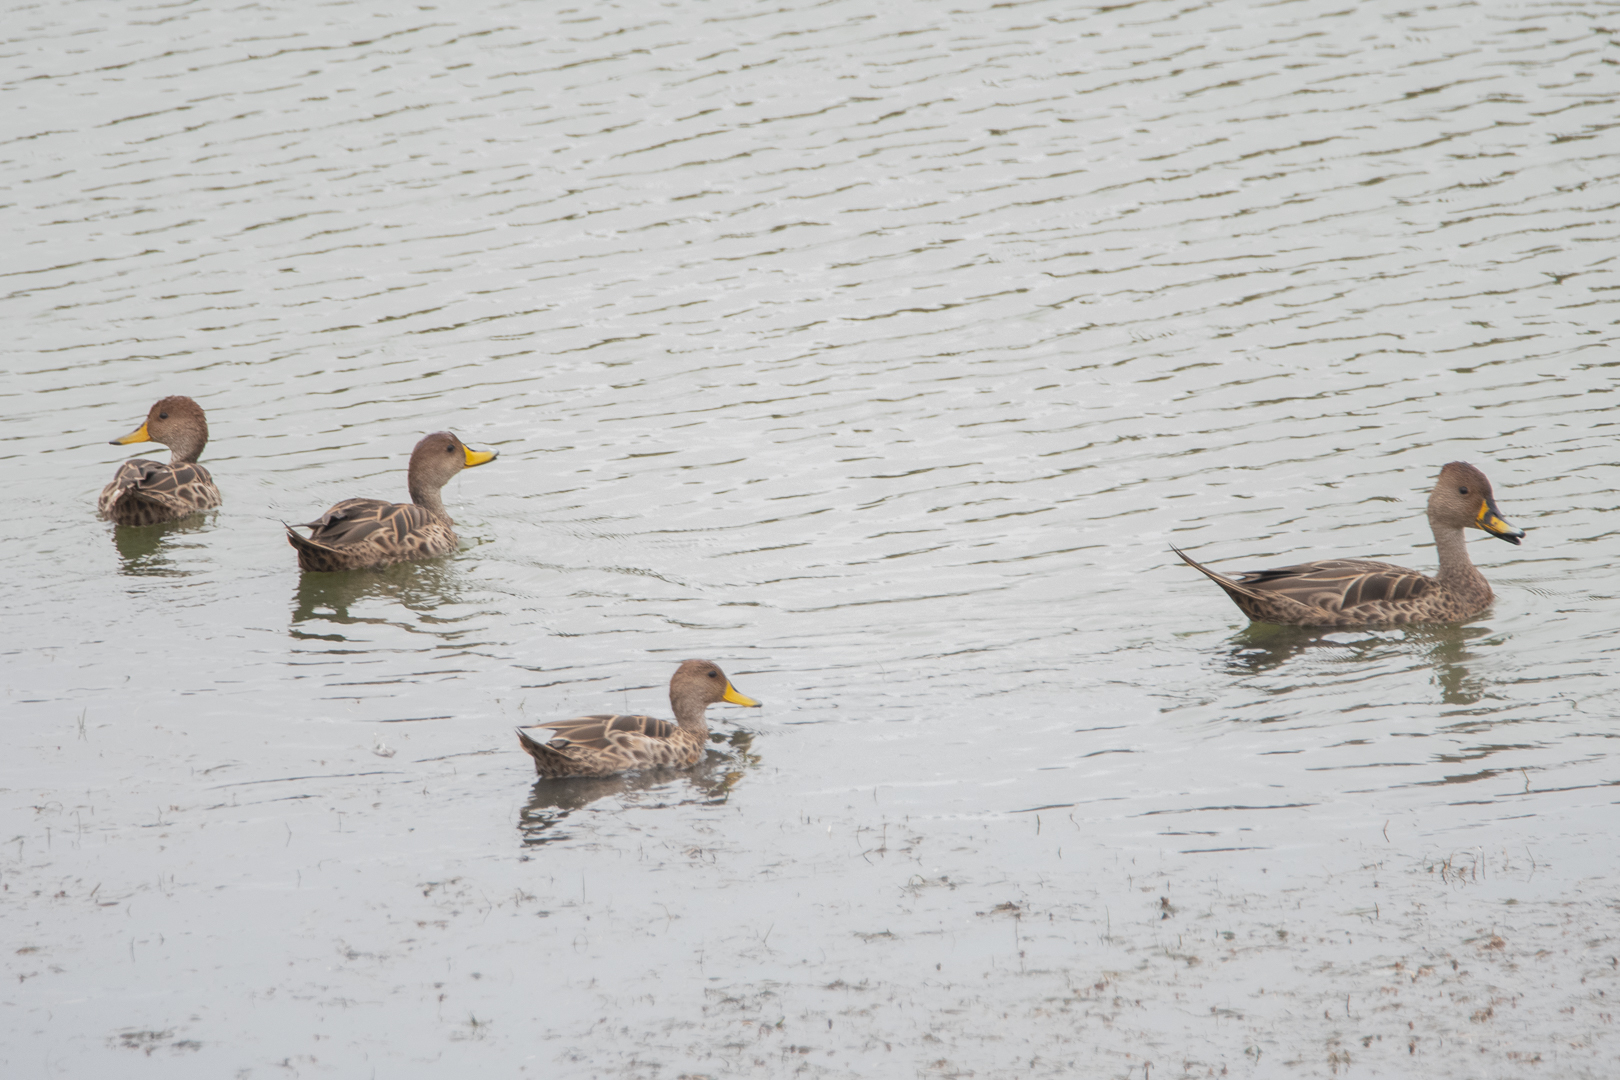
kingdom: Animalia
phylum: Chordata
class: Aves
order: Anseriformes
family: Anatidae
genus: Anas
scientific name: Anas georgica
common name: Yellow-billed pintail
